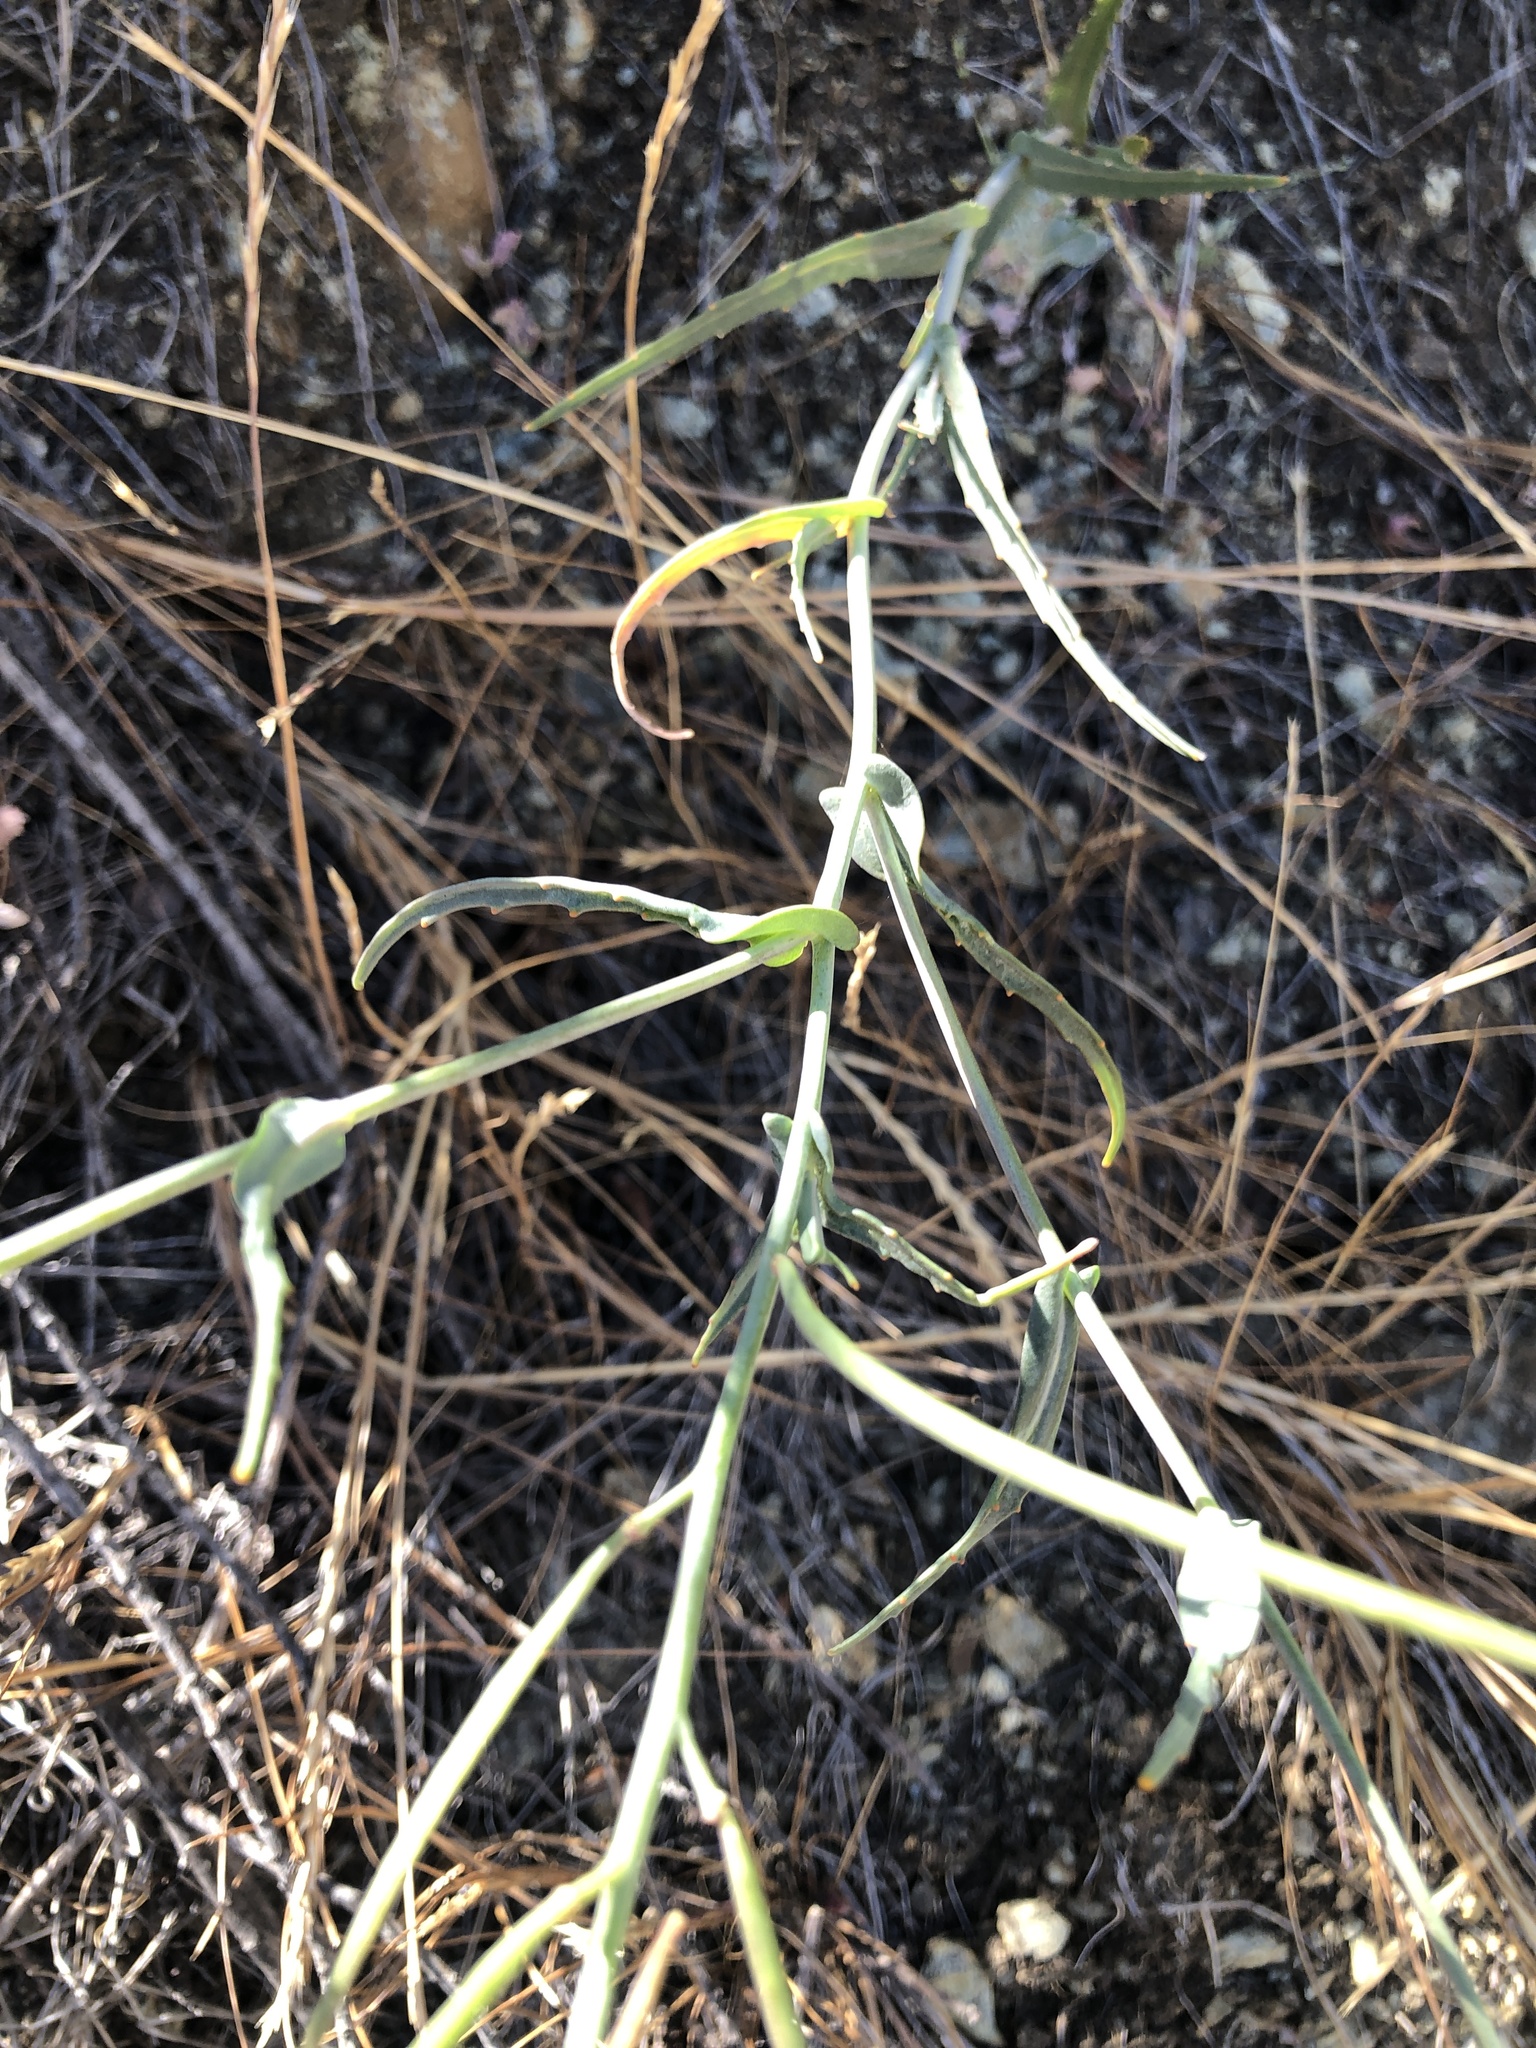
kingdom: Plantae
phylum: Tracheophyta
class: Magnoliopsida
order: Brassicales
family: Brassicaceae
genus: Streptanthus
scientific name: Streptanthus glandulosus
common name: Jewel-flower
